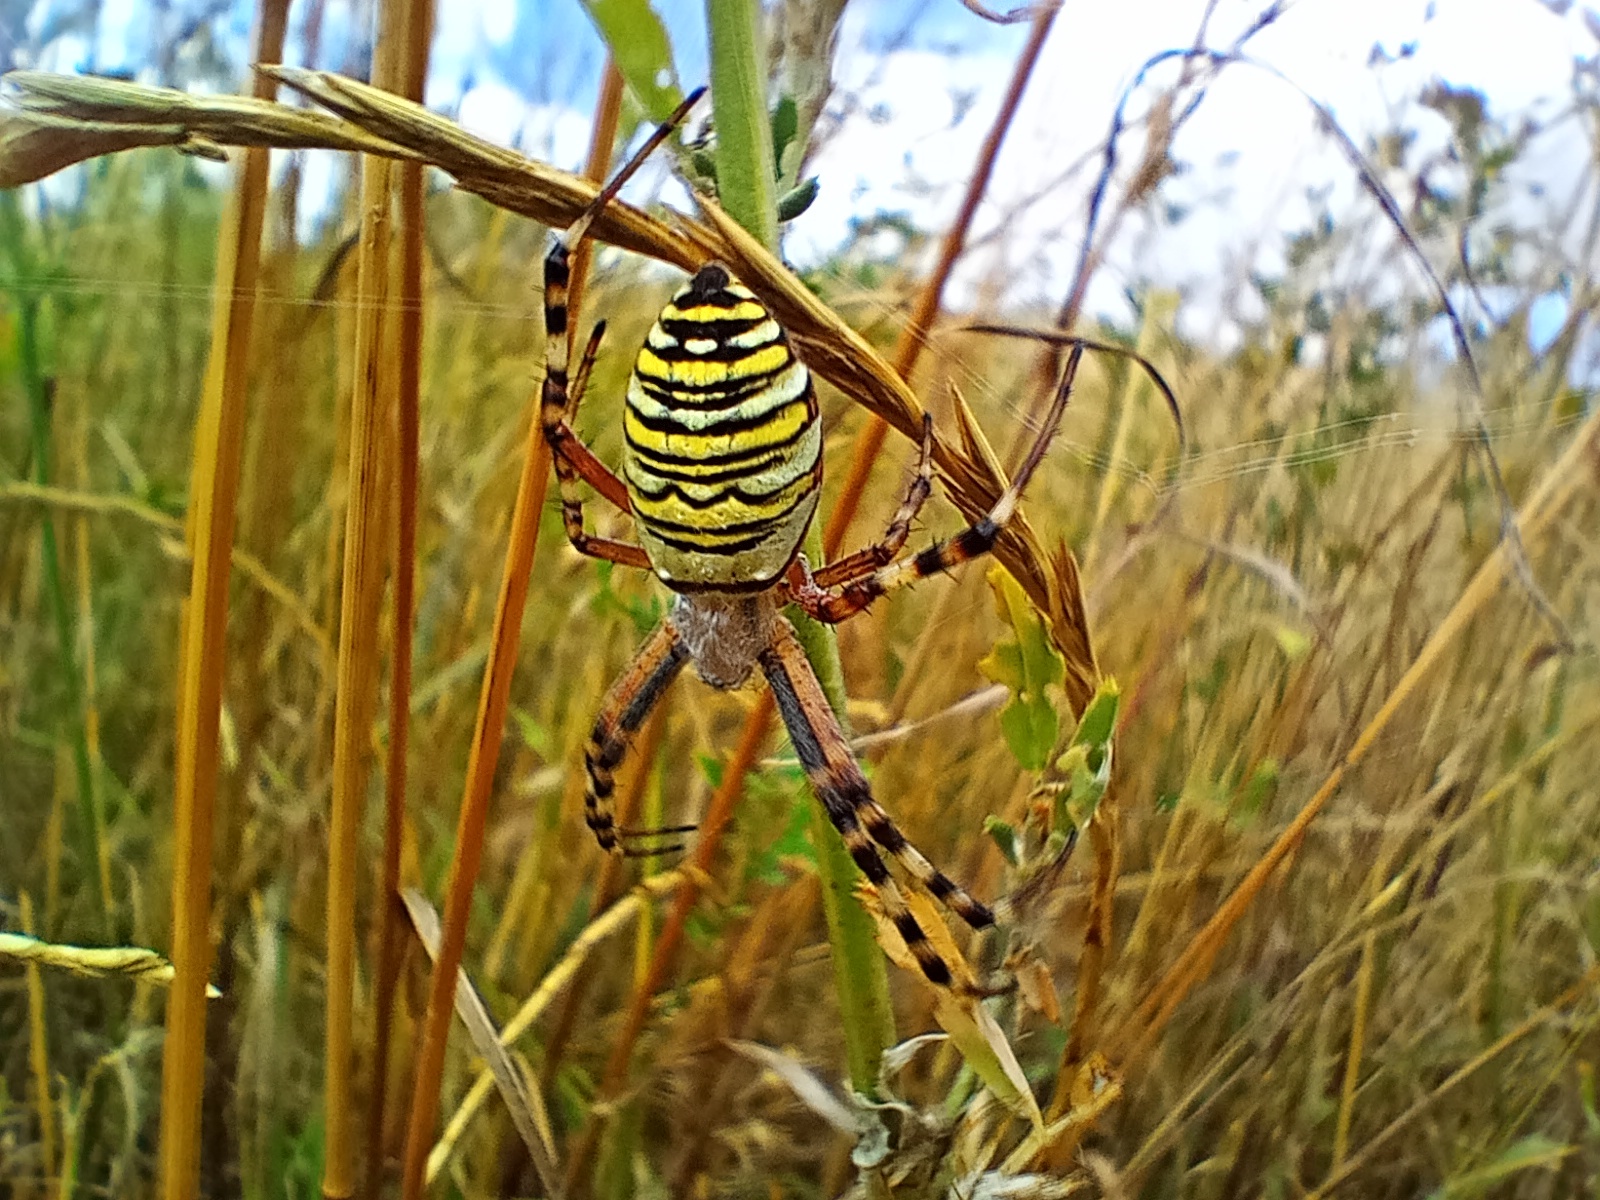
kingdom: Animalia
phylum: Arthropoda
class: Arachnida
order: Araneae
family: Araneidae
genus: Argiope
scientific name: Argiope bruennichi
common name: Wasp spider
